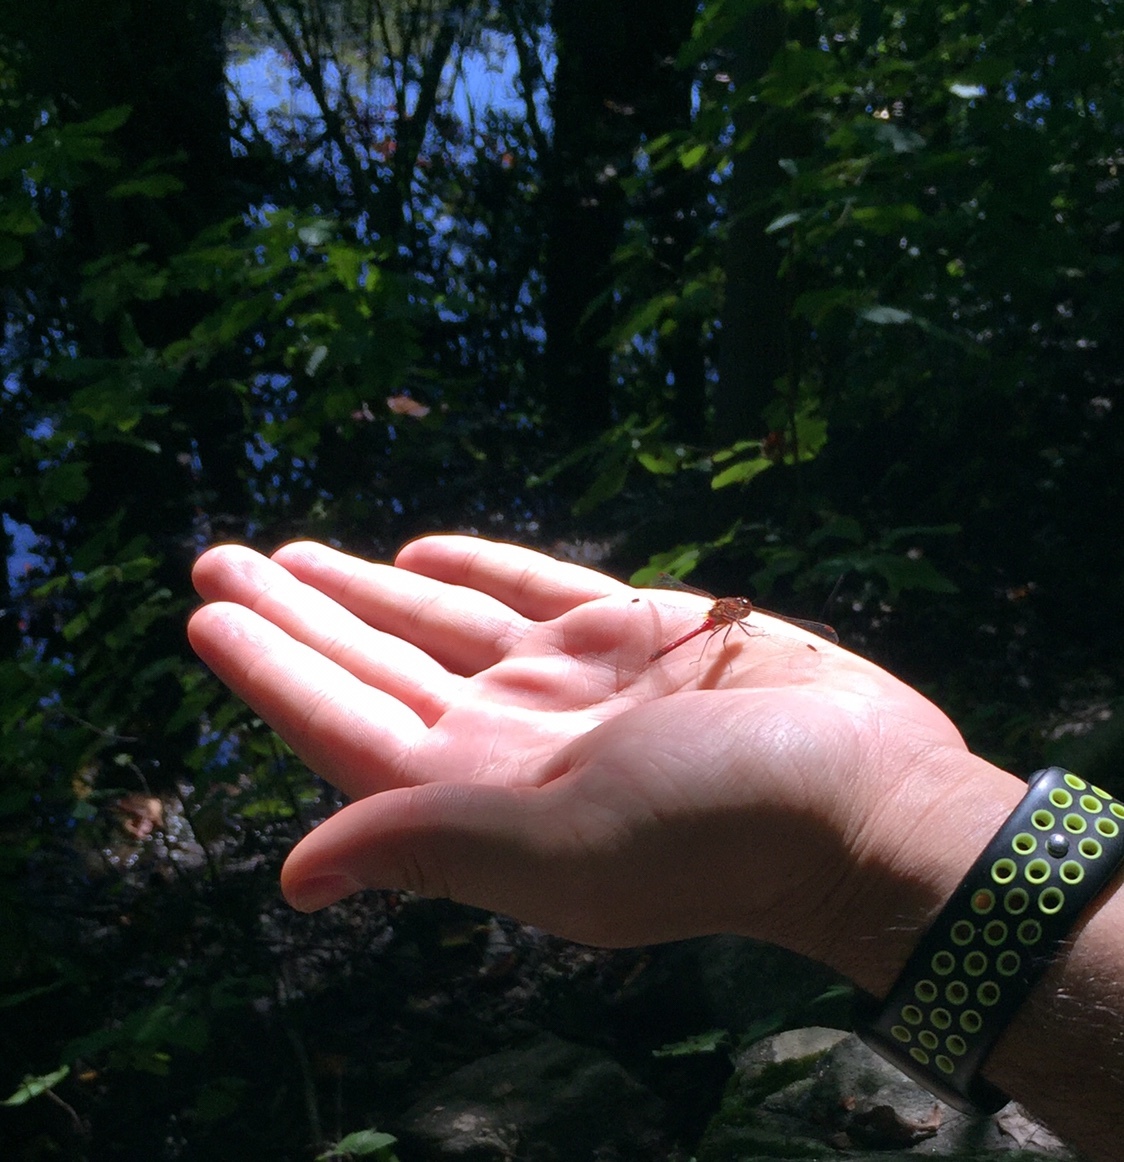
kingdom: Animalia
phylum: Arthropoda
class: Insecta
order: Odonata
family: Libellulidae
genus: Sympetrum
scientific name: Sympetrum vicinum
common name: Autumn meadowhawk
